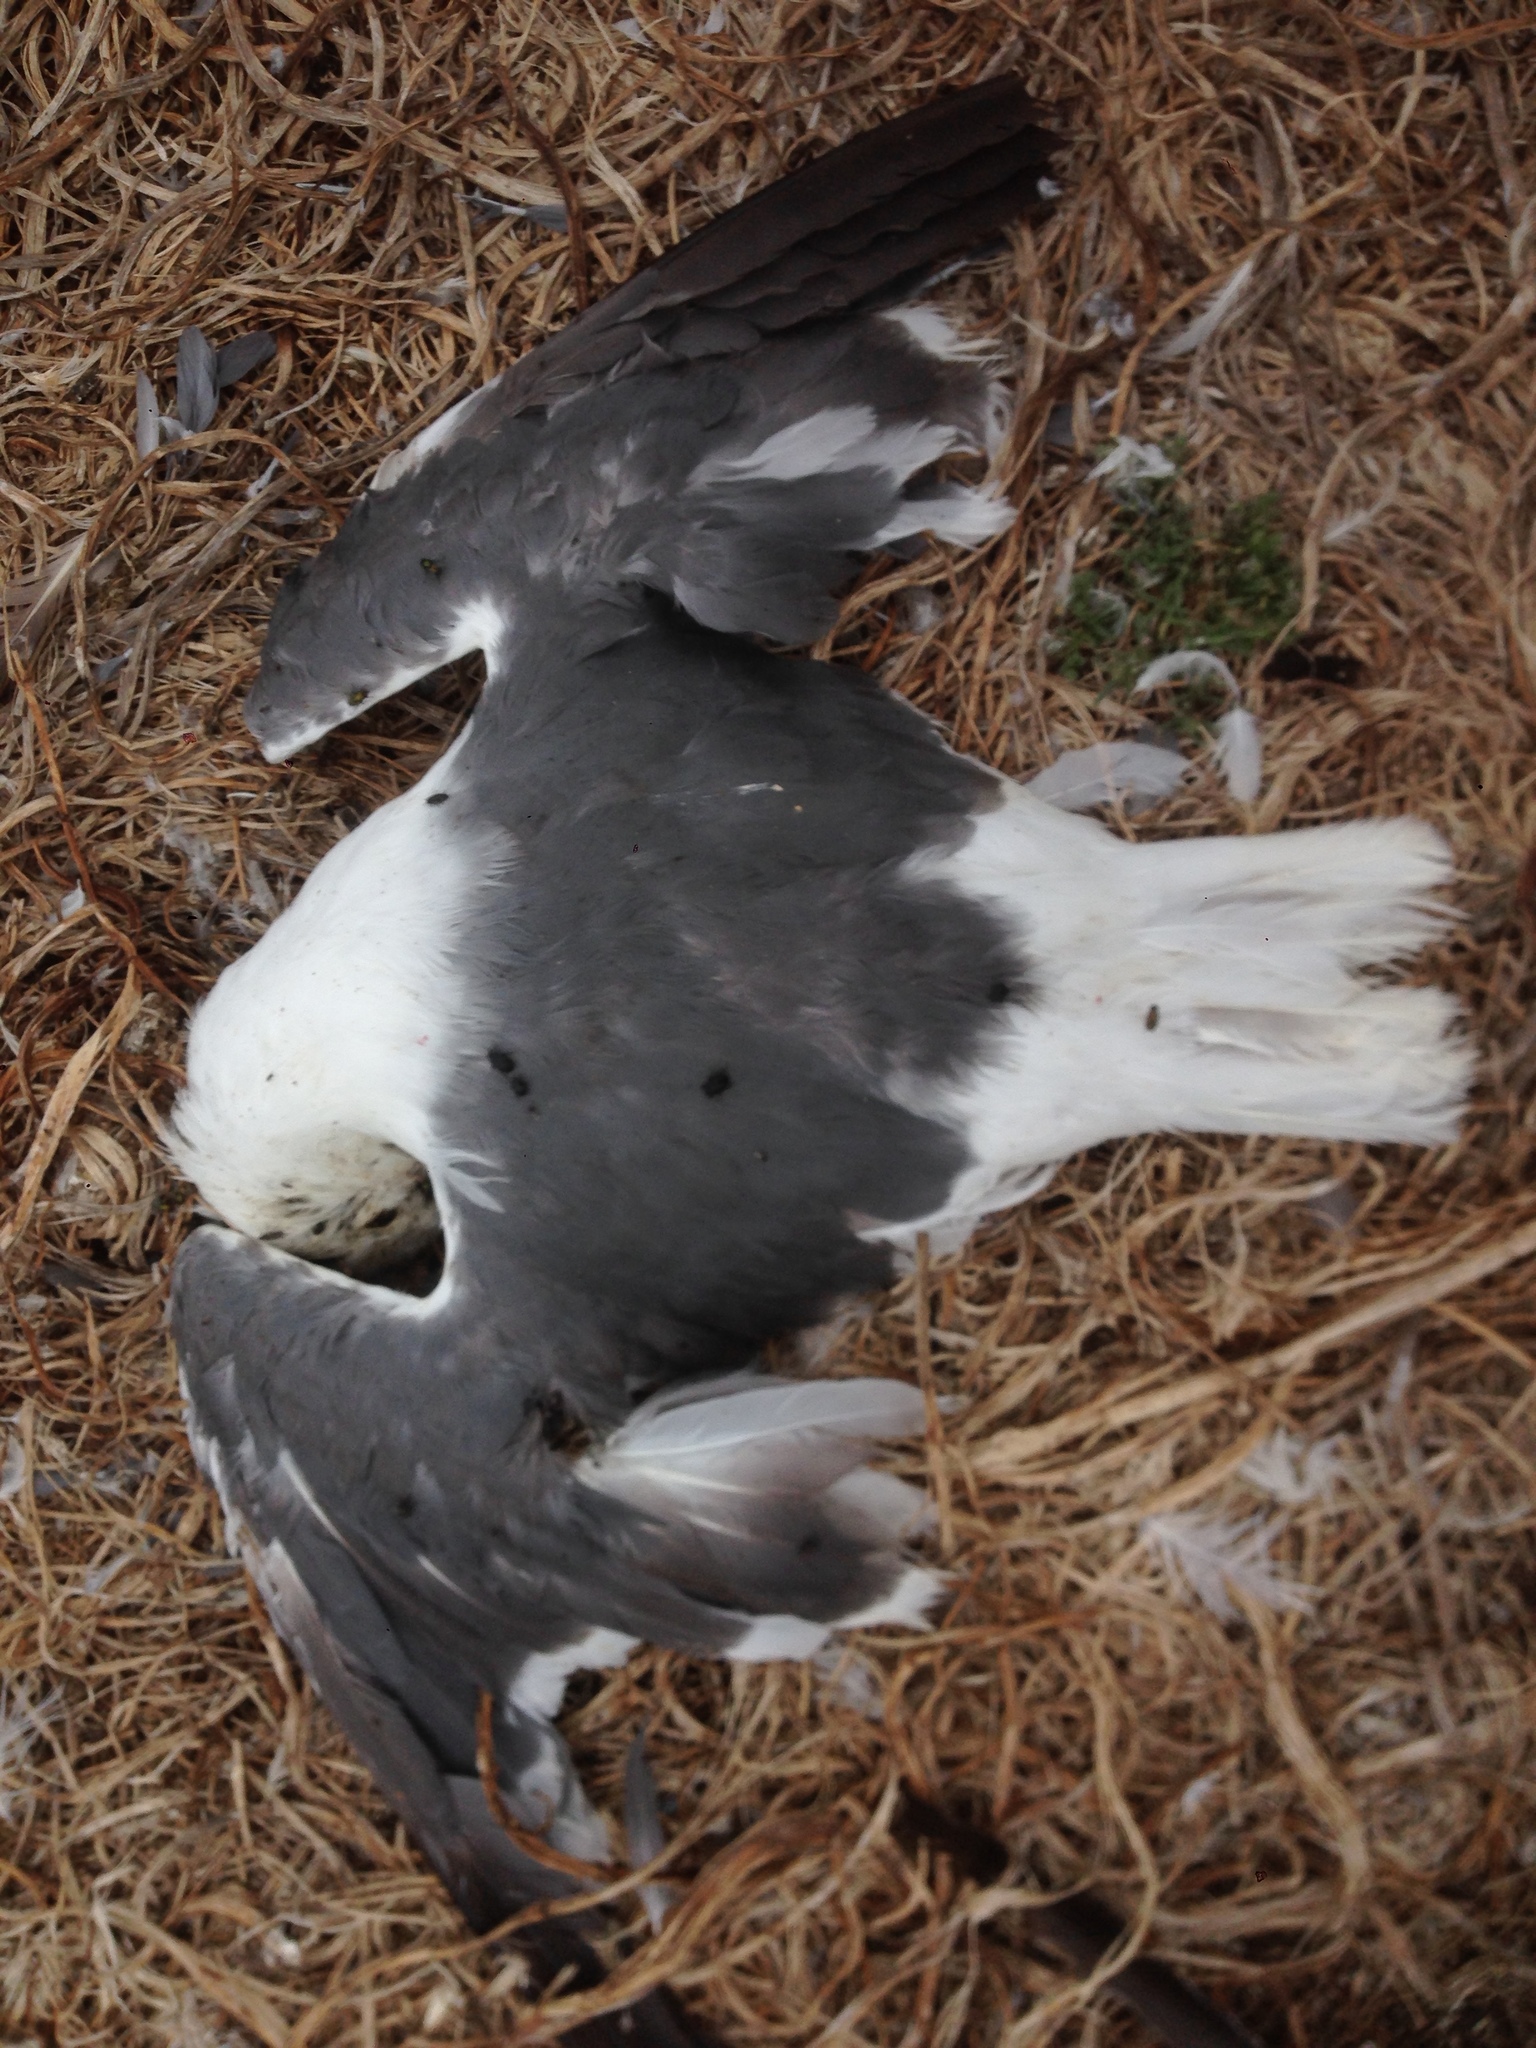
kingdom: Animalia
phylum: Chordata
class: Aves
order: Charadriiformes
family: Laridae
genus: Larus
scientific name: Larus occidentalis
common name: Western gull
